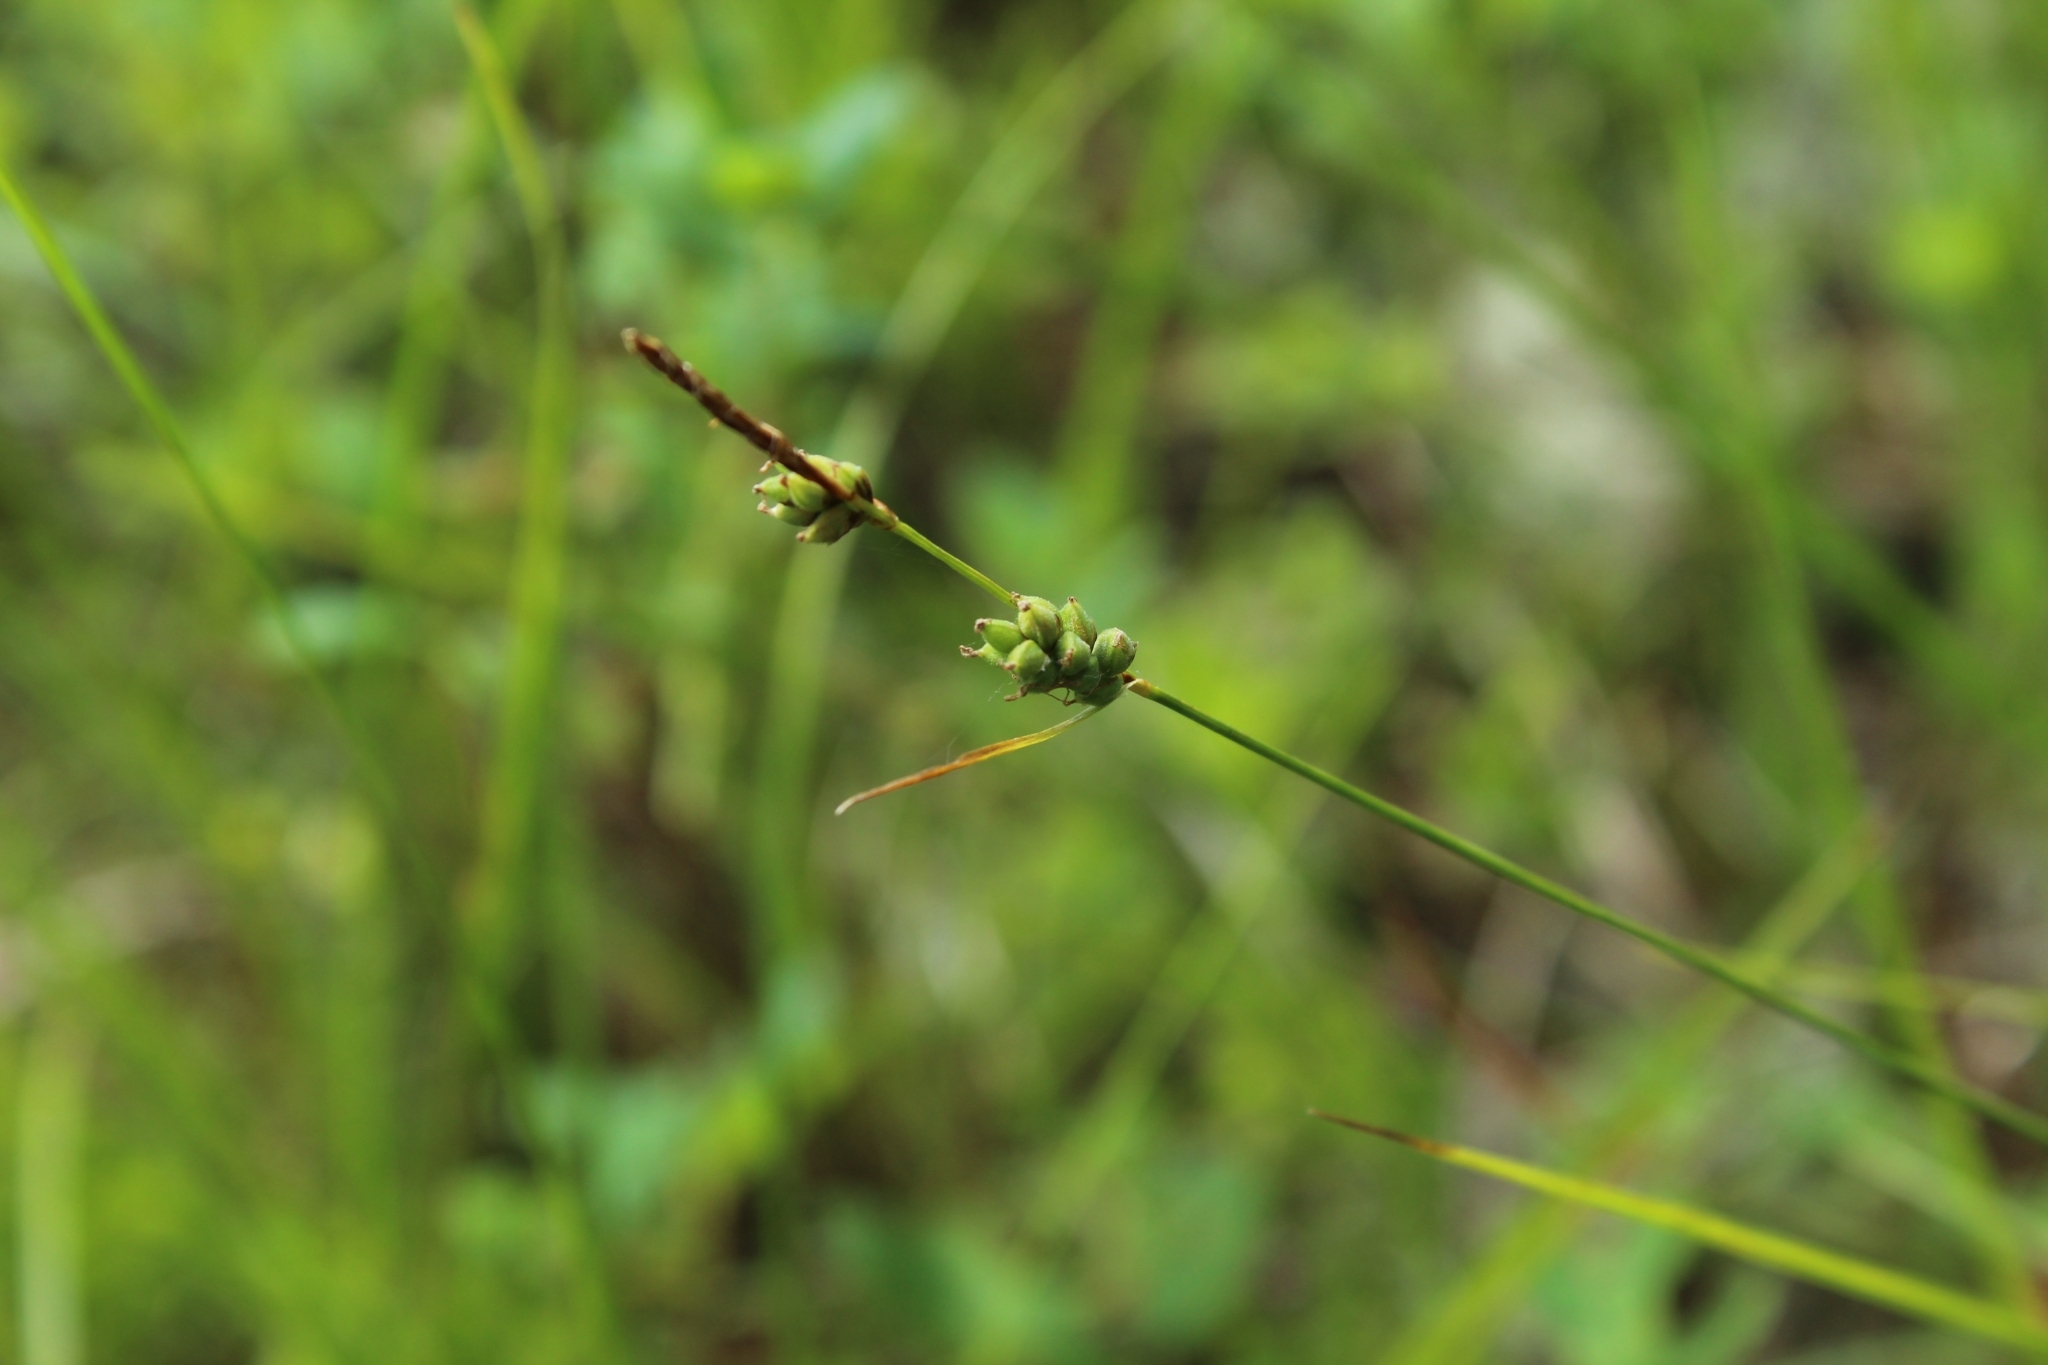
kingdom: Plantae
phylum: Tracheophyta
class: Liliopsida
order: Poales
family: Cyperaceae
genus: Carex
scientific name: Carex globularis
